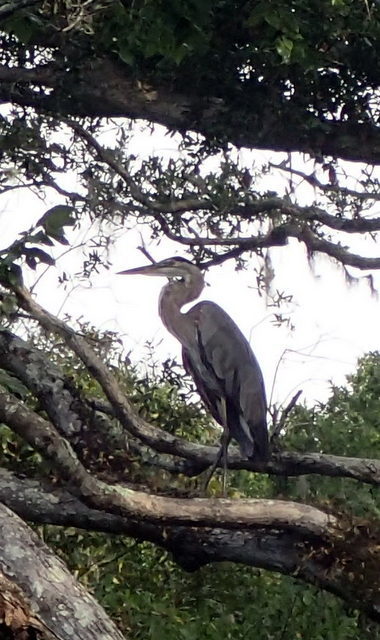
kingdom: Animalia
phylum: Chordata
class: Aves
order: Pelecaniformes
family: Ardeidae
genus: Ardea
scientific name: Ardea herodias
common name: Great blue heron
